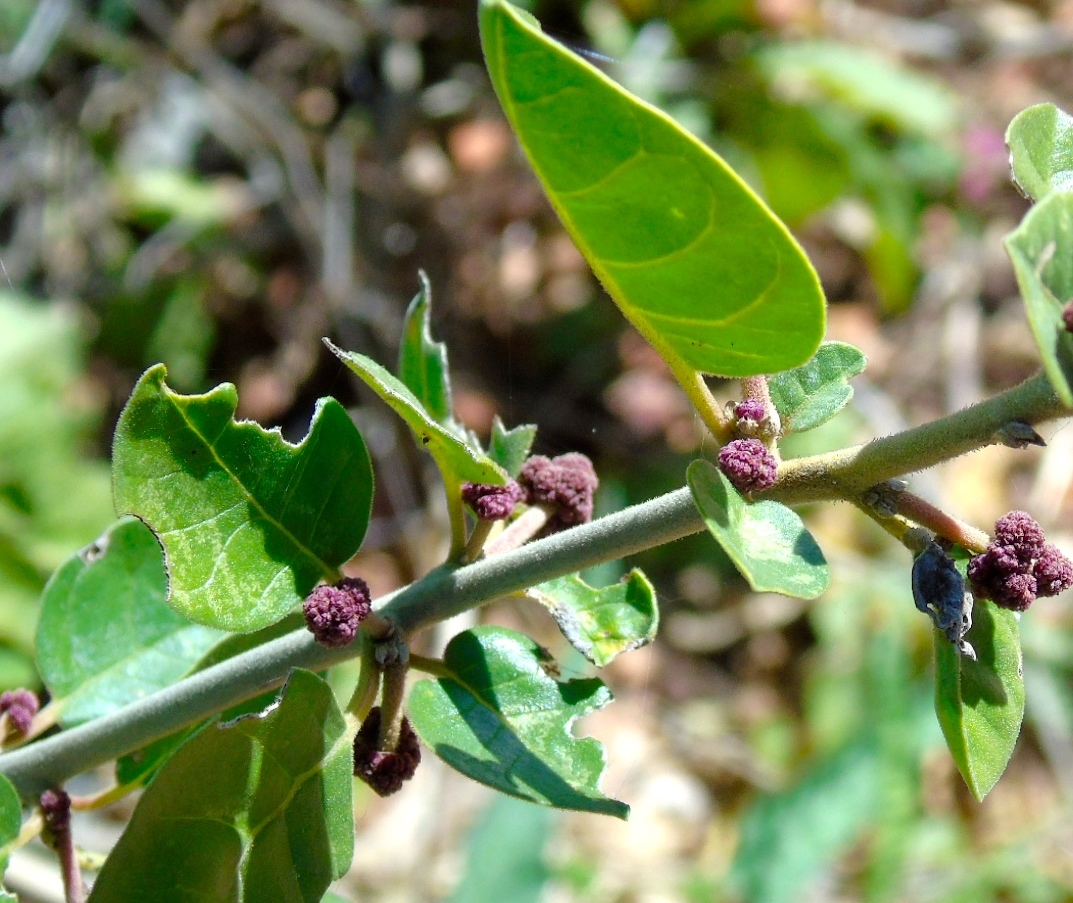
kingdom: Plantae
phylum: Tracheophyta
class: Magnoliopsida
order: Caryophyllales
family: Nyctaginaceae
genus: Pisonia
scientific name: Pisonia capitata
